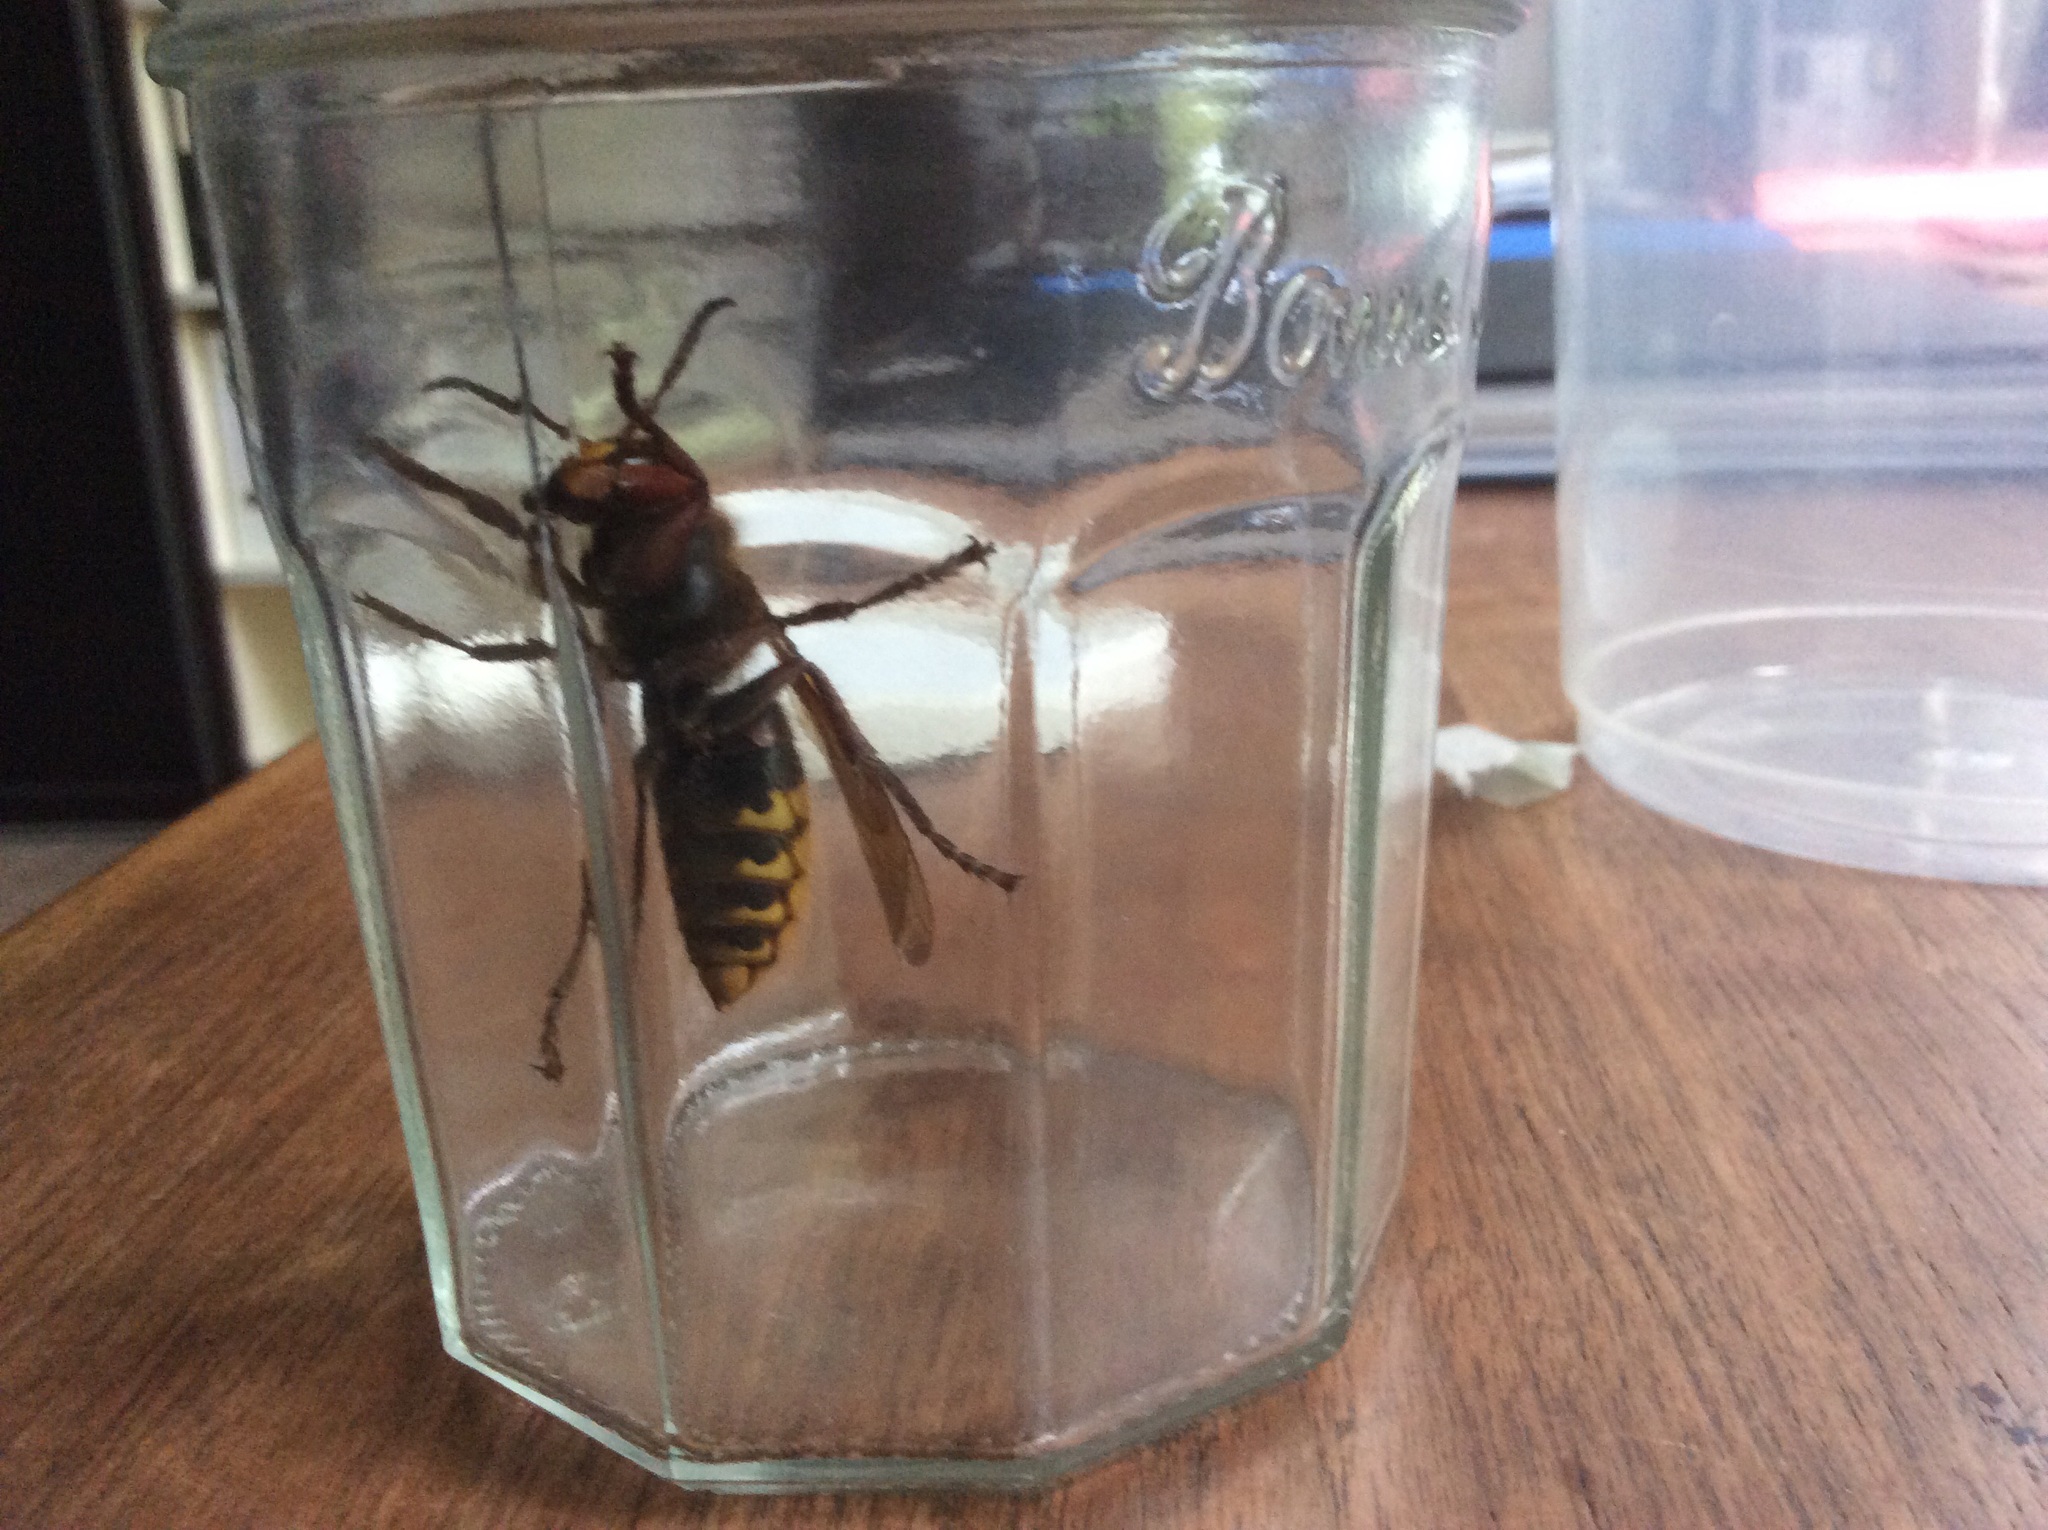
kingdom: Animalia
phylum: Arthropoda
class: Insecta
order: Hymenoptera
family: Vespidae
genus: Vespa
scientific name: Vespa crabro
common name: Hornet
